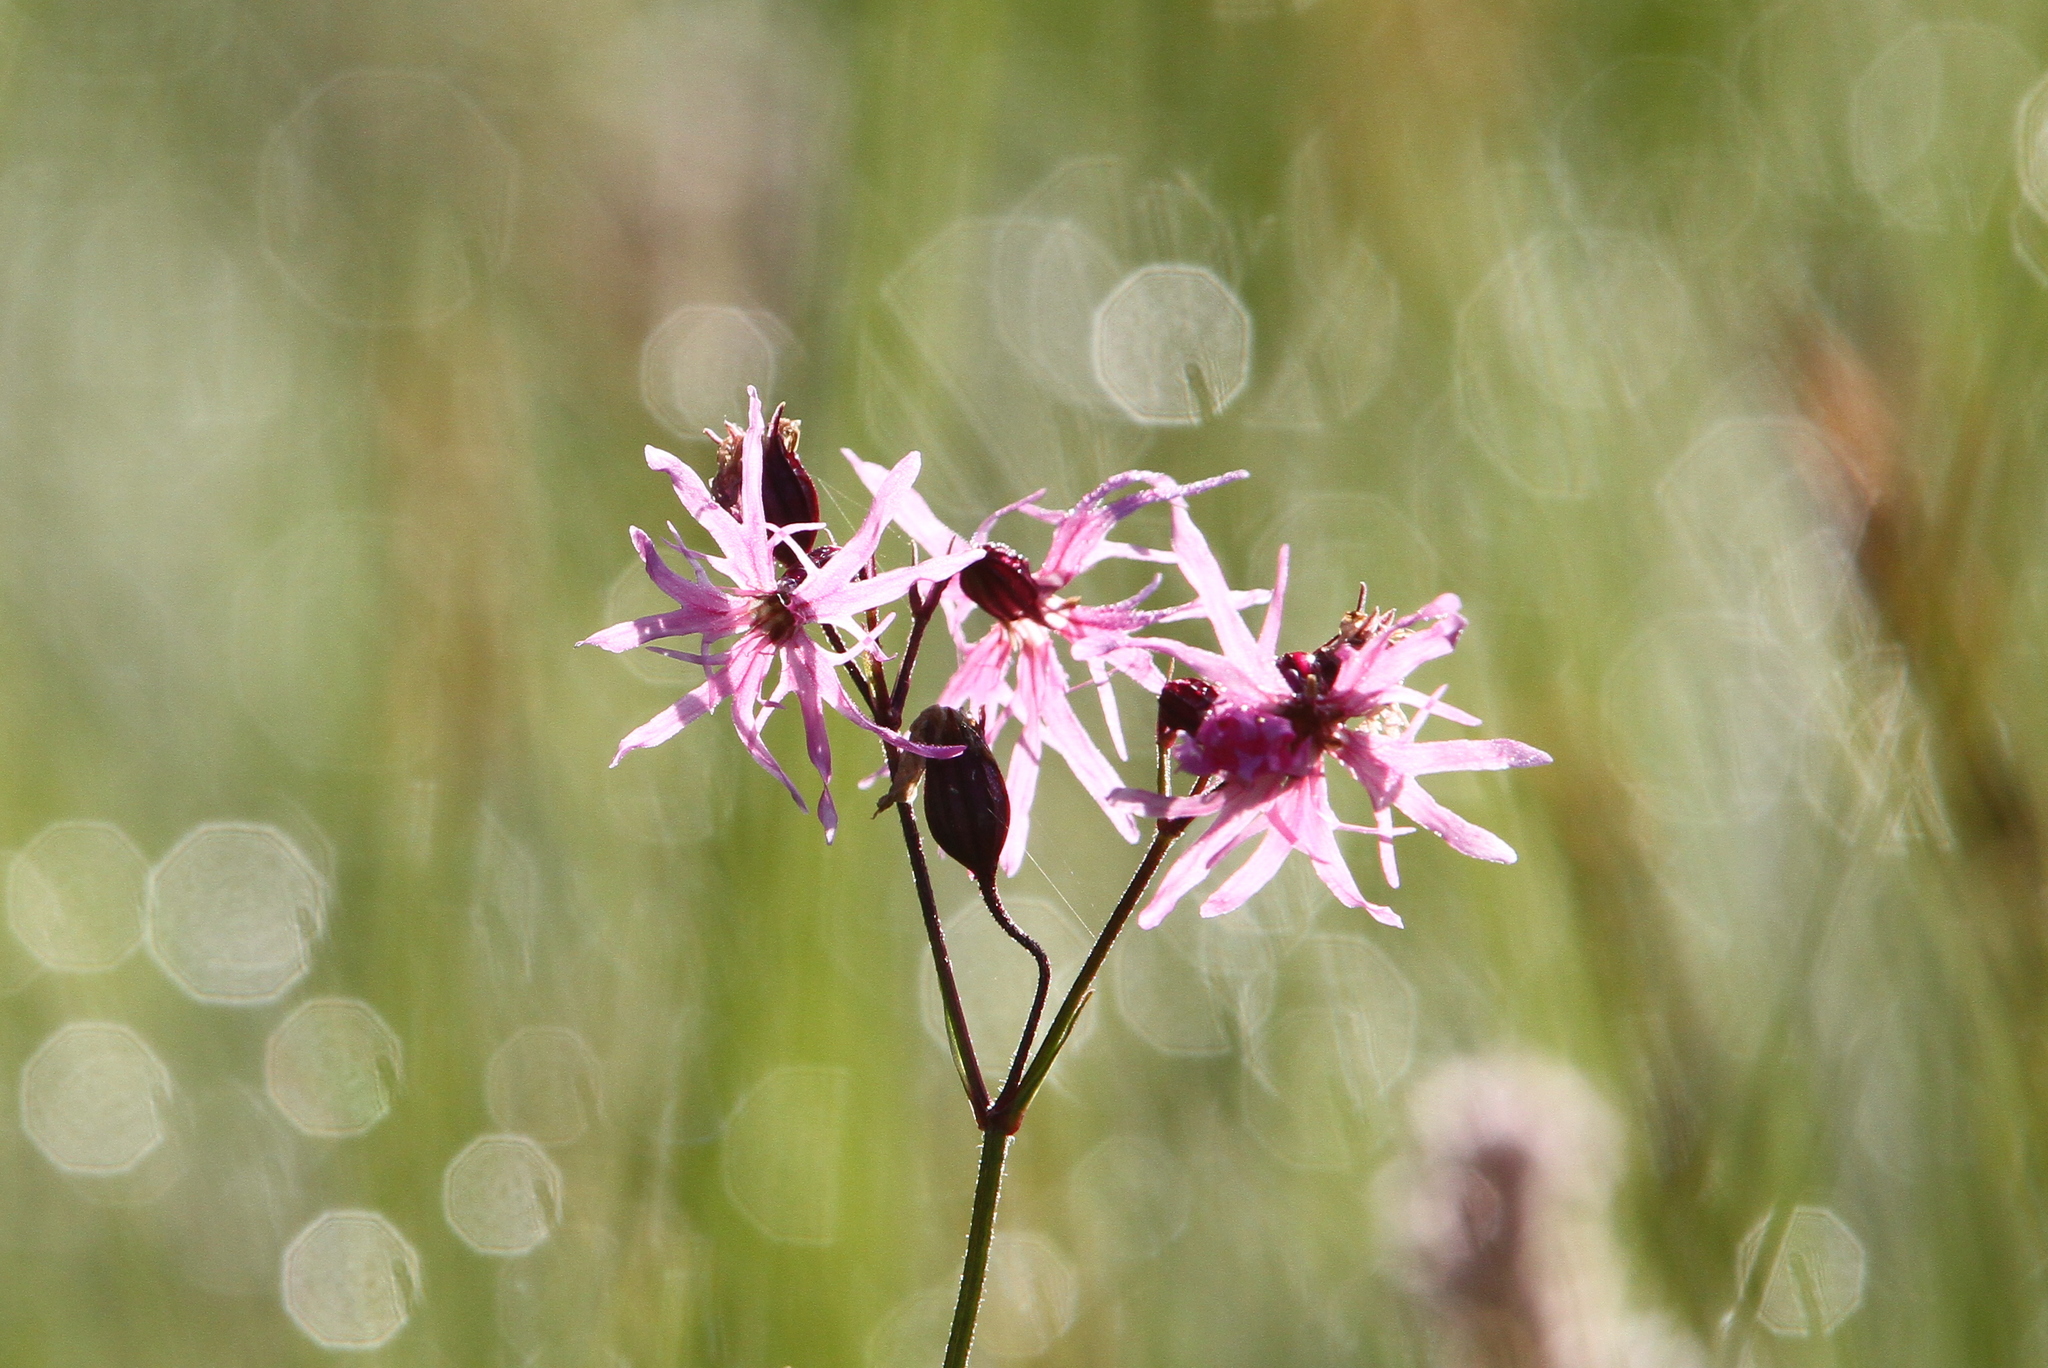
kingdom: Plantae
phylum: Tracheophyta
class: Magnoliopsida
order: Caryophyllales
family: Caryophyllaceae
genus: Silene
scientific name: Silene flos-cuculi
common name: Ragged-robin
